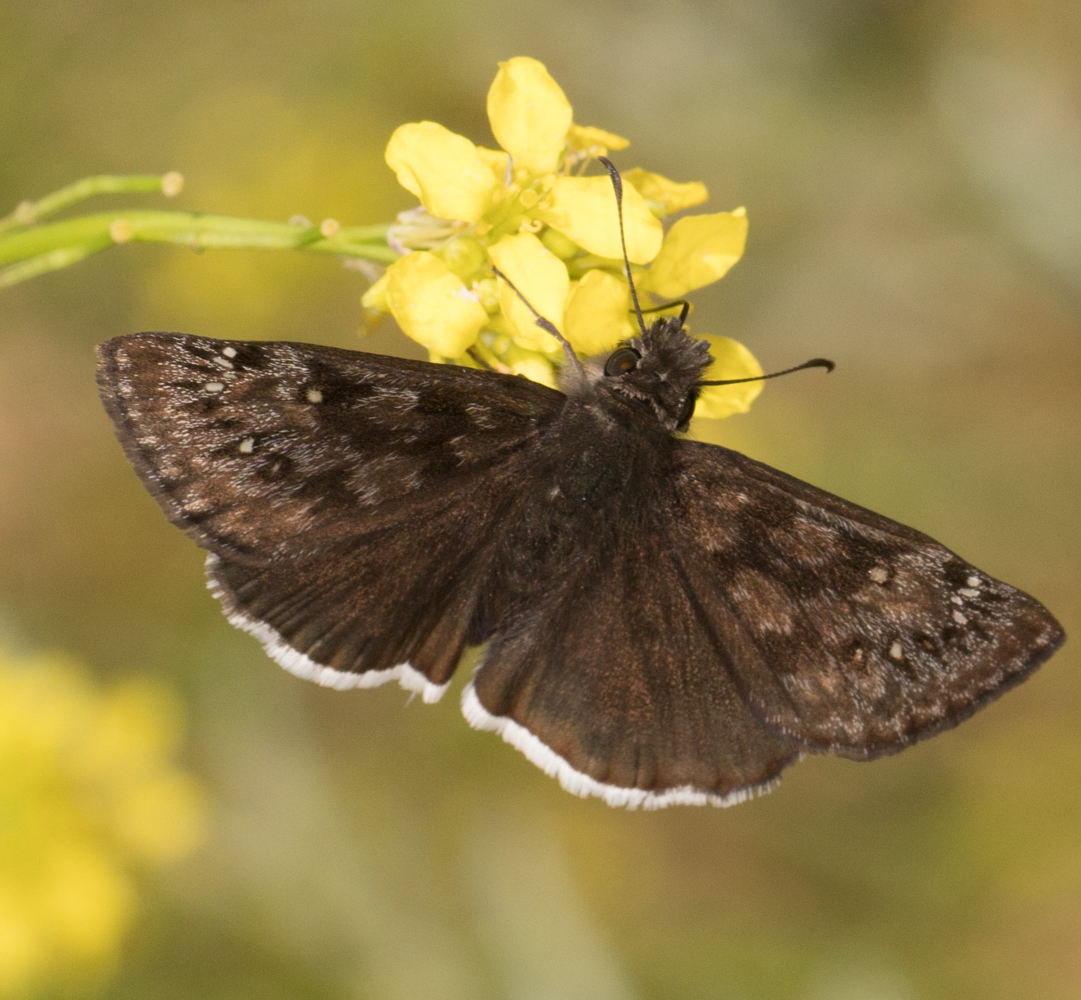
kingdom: Animalia
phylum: Arthropoda
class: Insecta
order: Lepidoptera
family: Hesperiidae
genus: Erynnis
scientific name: Erynnis tristis
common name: Mournful duskywing
